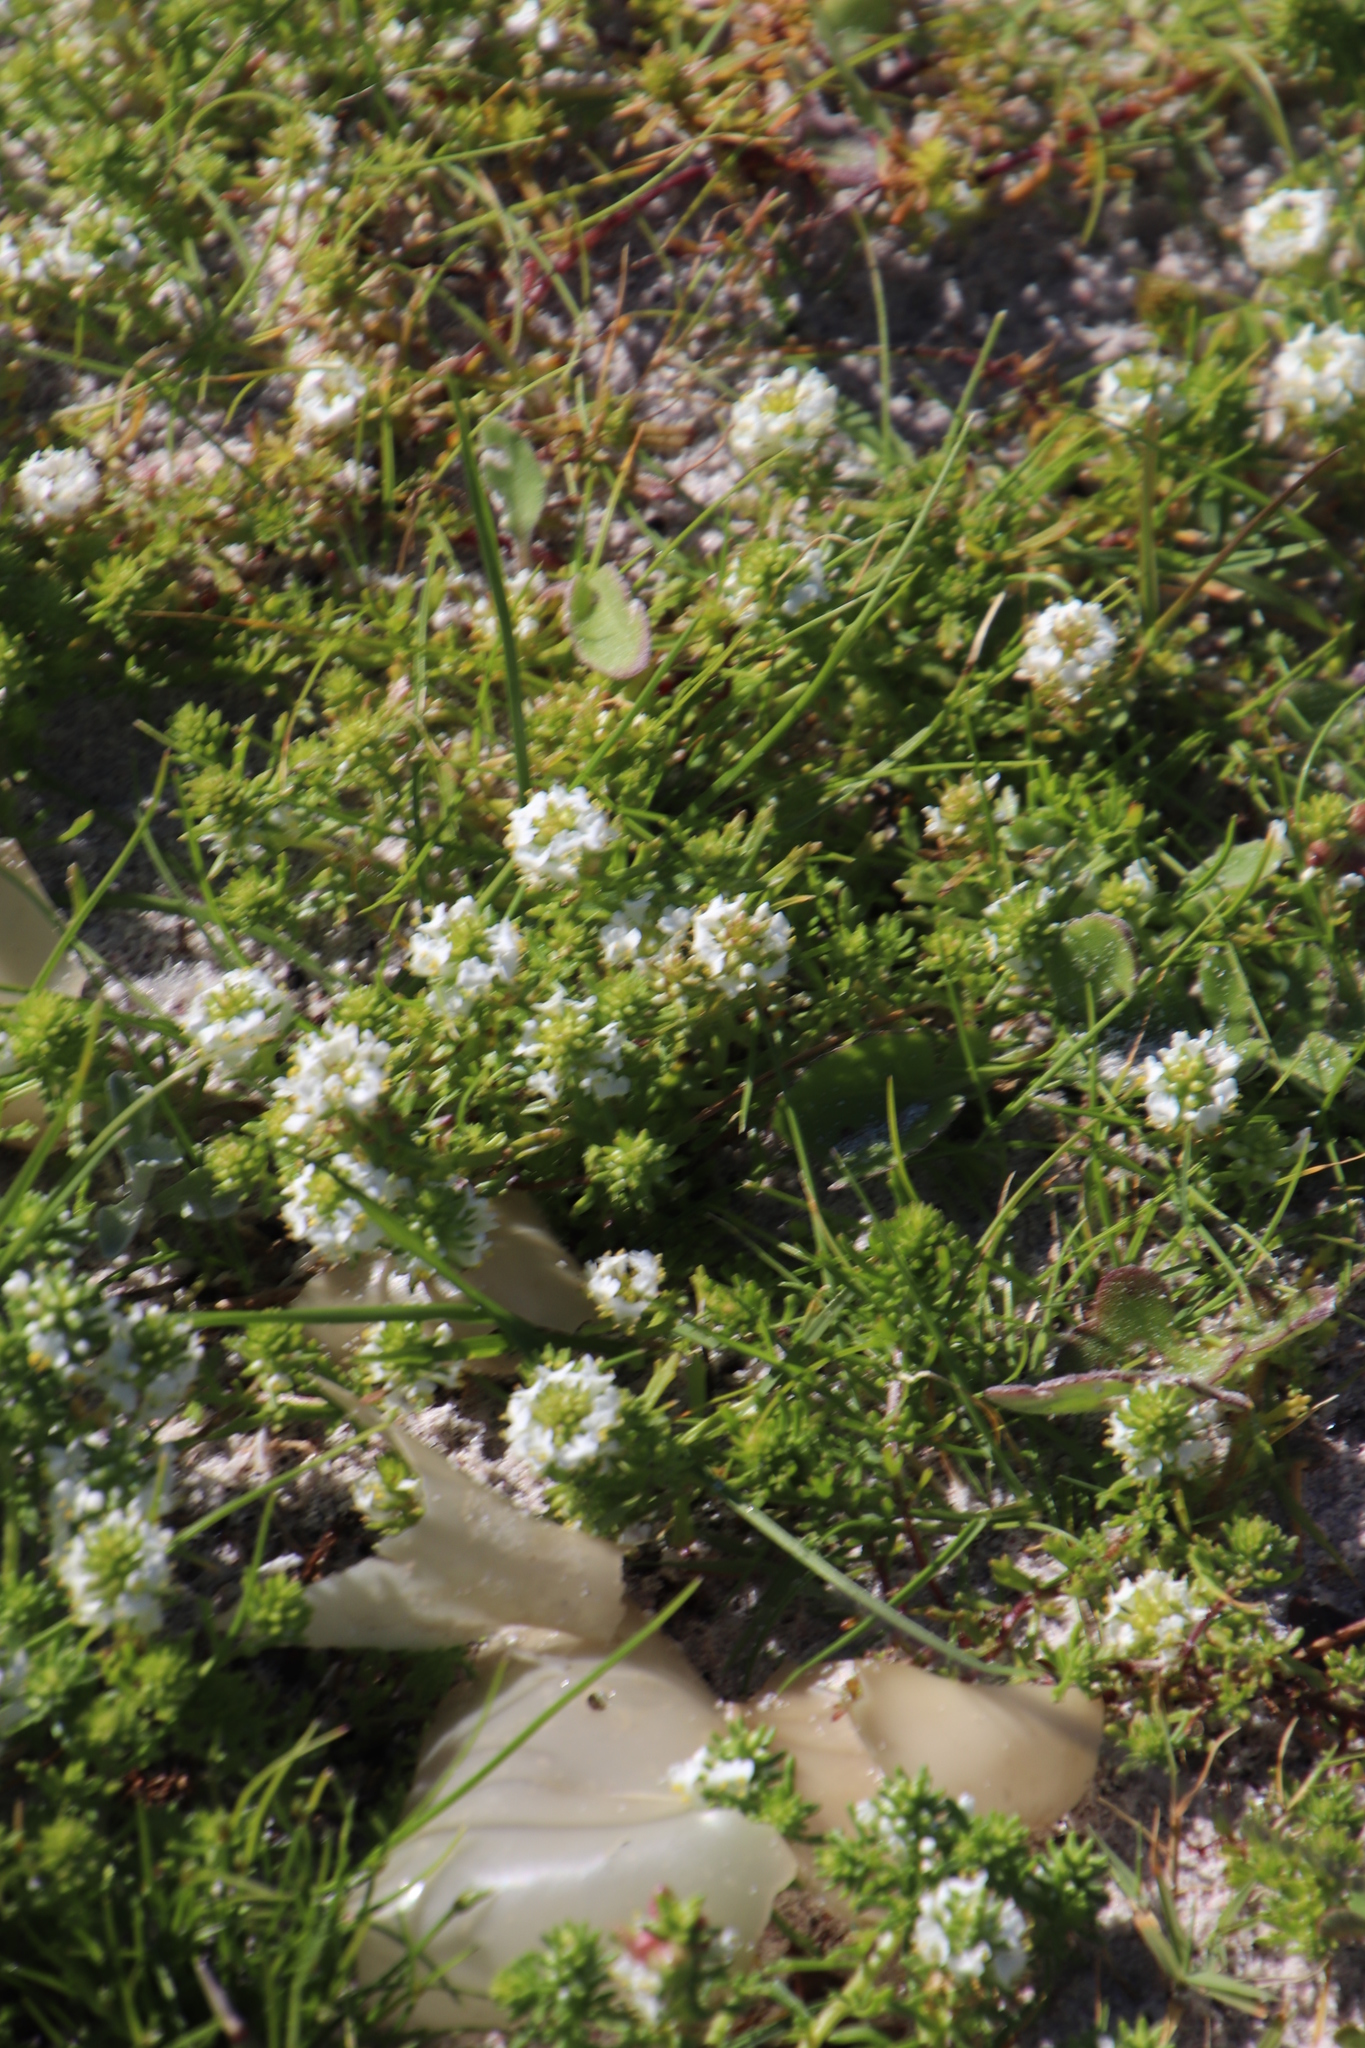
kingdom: Plantae
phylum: Tracheophyta
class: Magnoliopsida
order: Lamiales
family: Scrophulariaceae
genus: Dischisma
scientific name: Dischisma ciliatum
